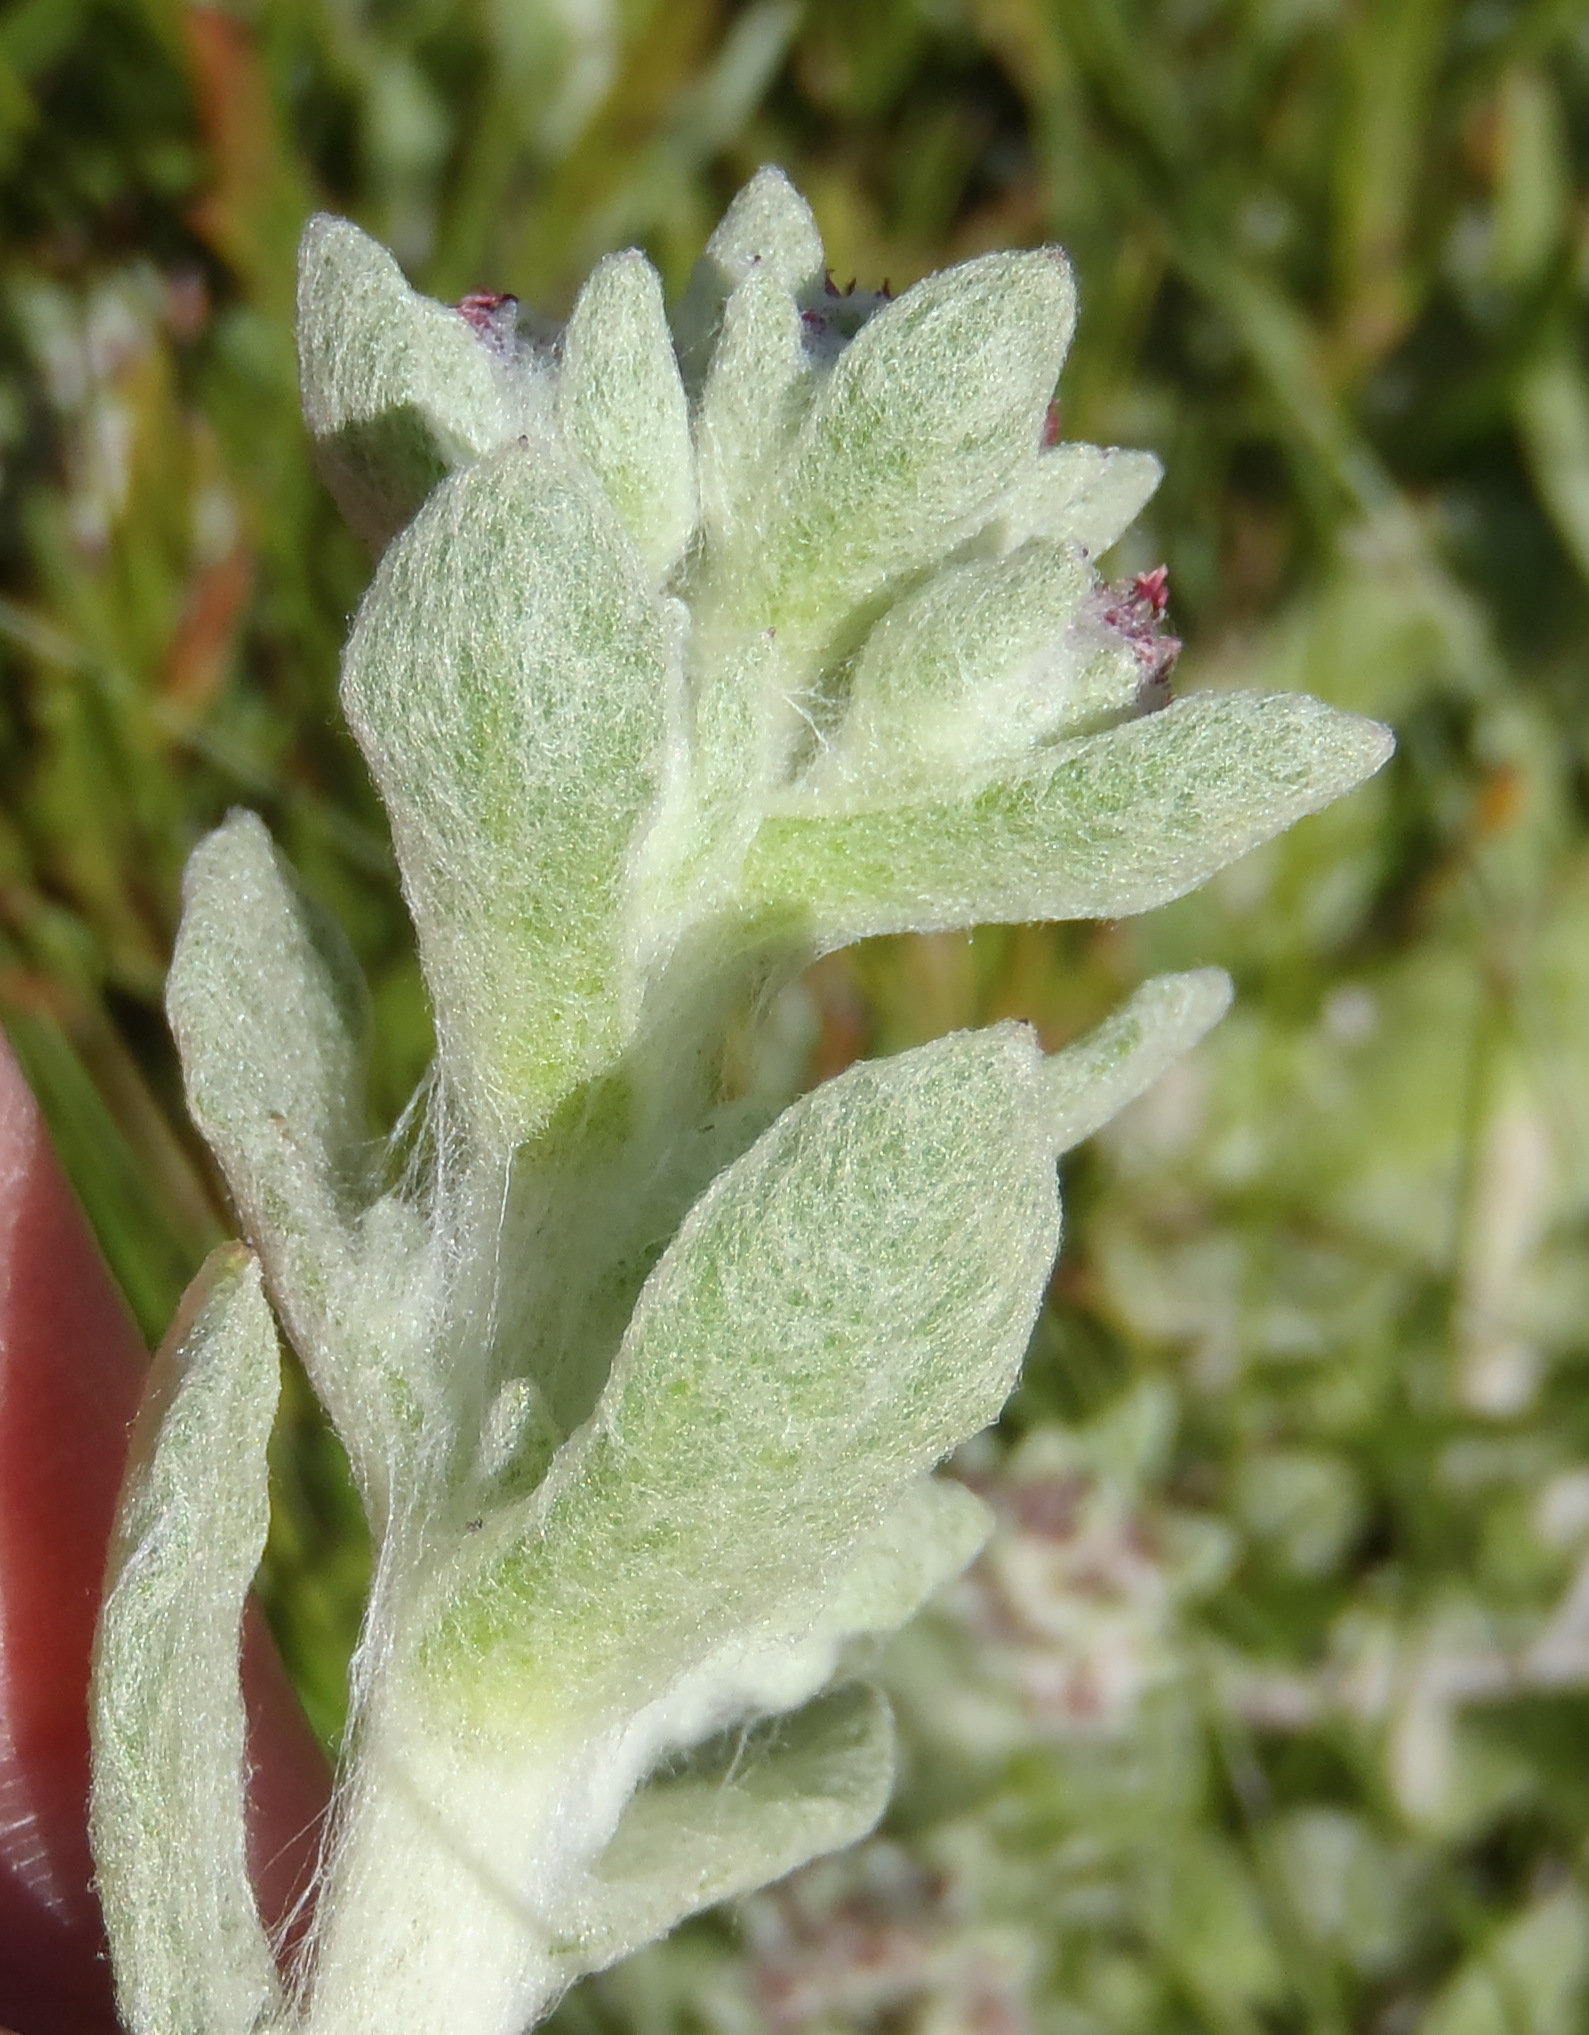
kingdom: Plantae
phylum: Tracheophyta
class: Magnoliopsida
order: Asterales
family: Asteraceae
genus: Helichrysum
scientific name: Helichrysum spiralepis
